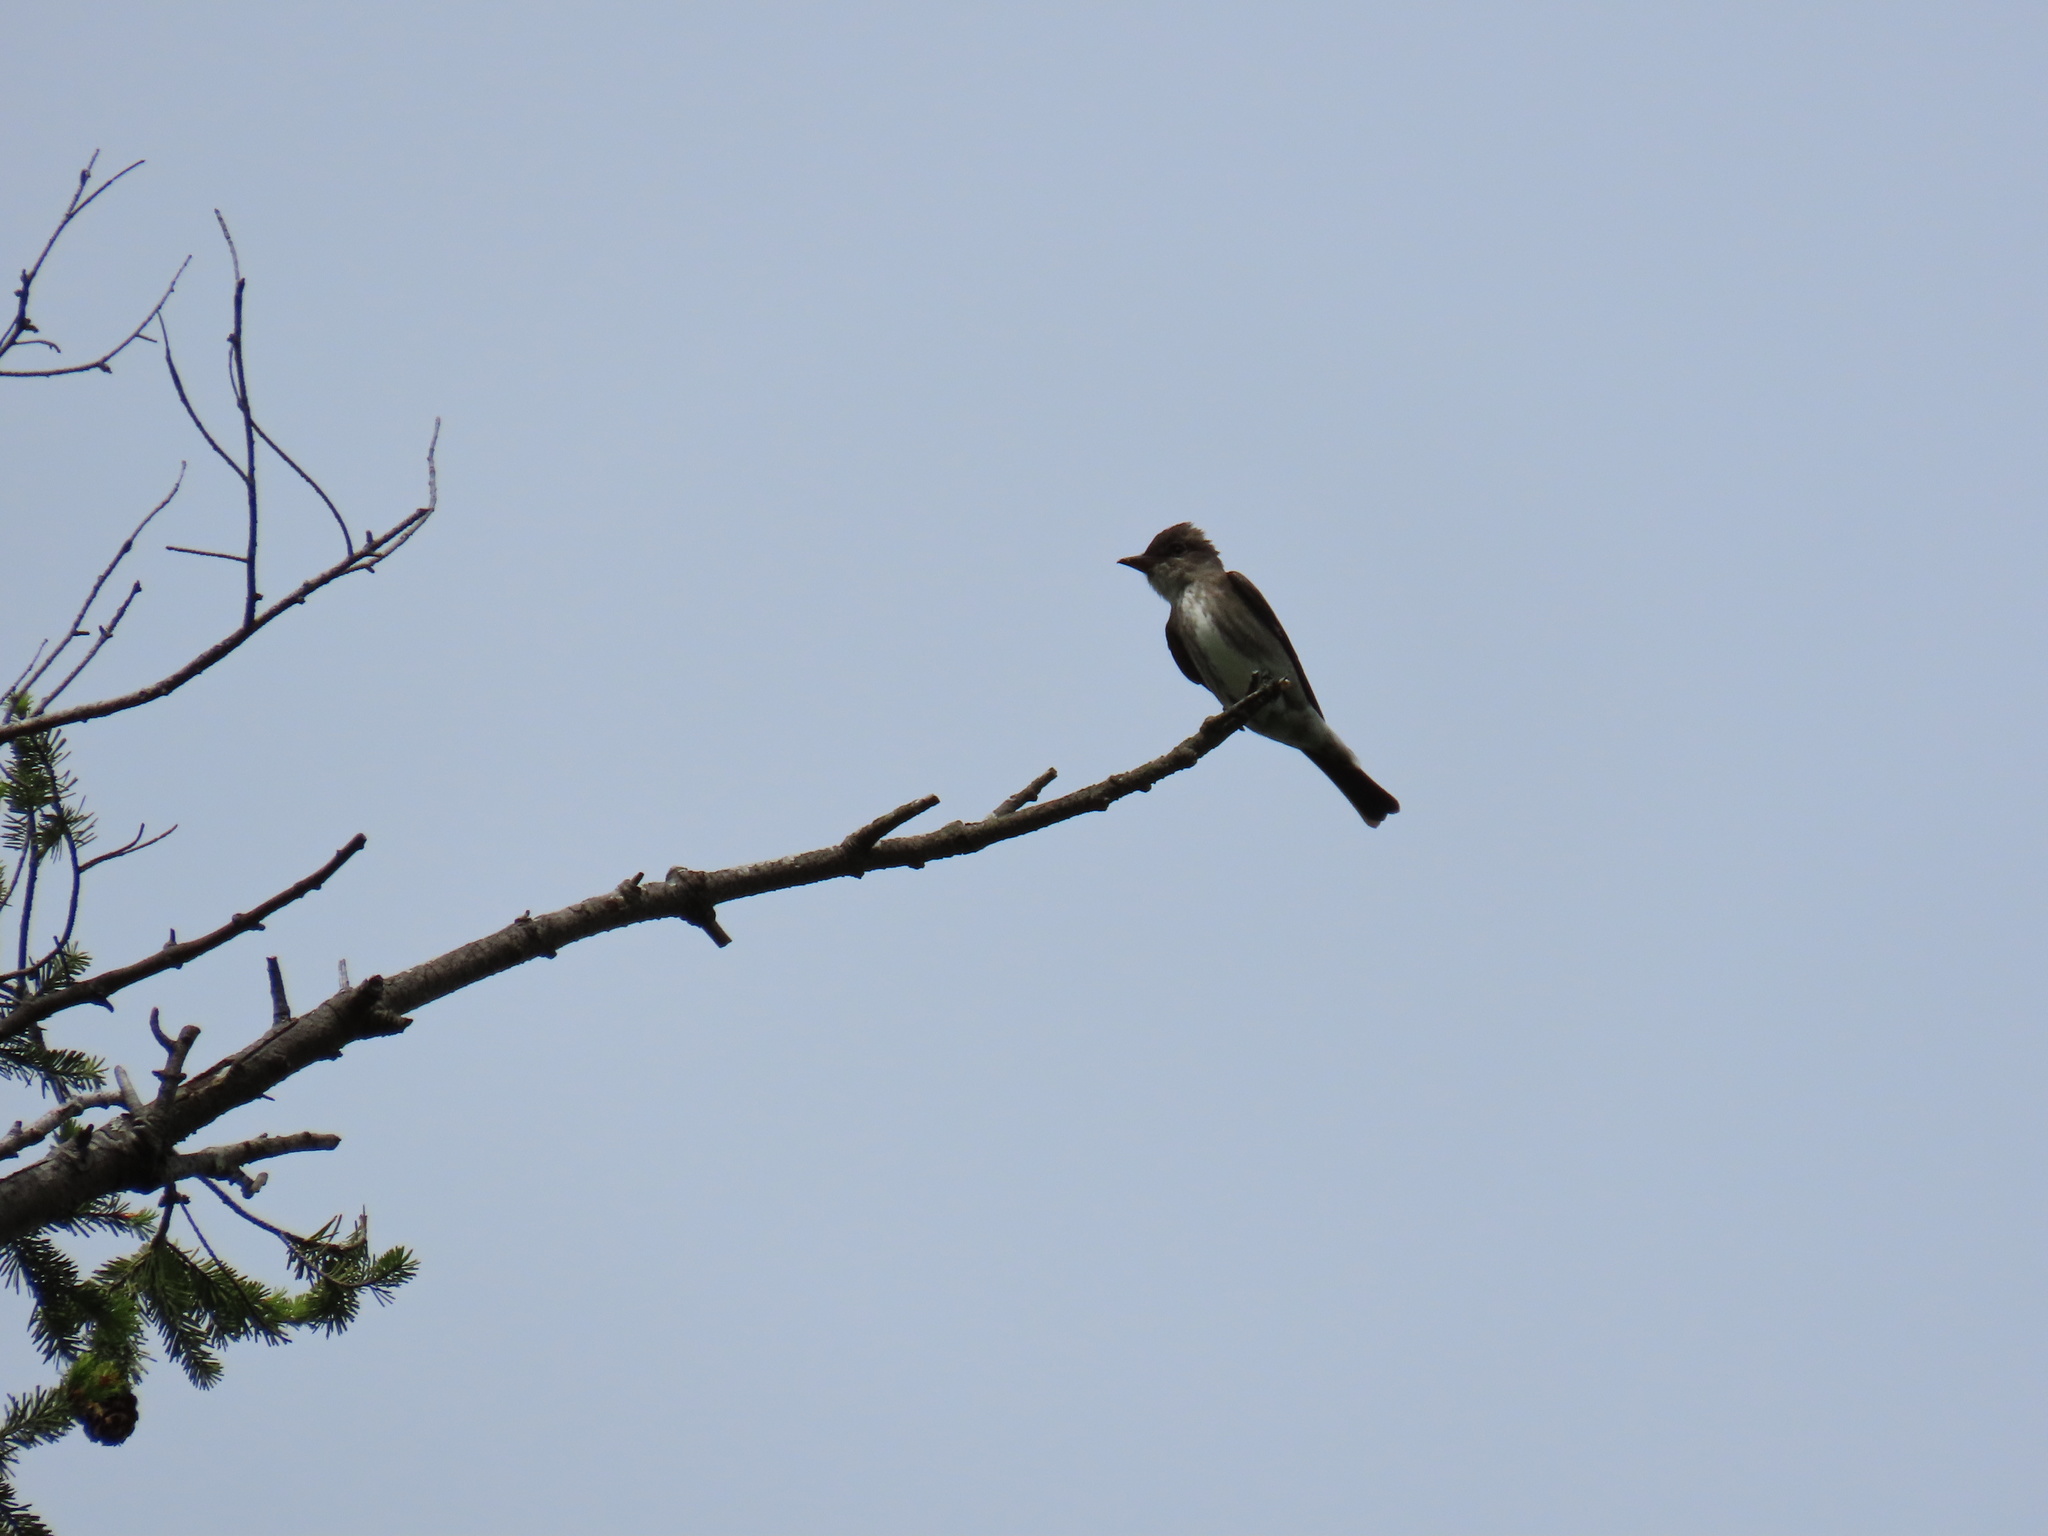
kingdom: Animalia
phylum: Chordata
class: Aves
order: Passeriformes
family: Tyrannidae
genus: Contopus
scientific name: Contopus cooperi
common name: Olive-sided flycatcher
